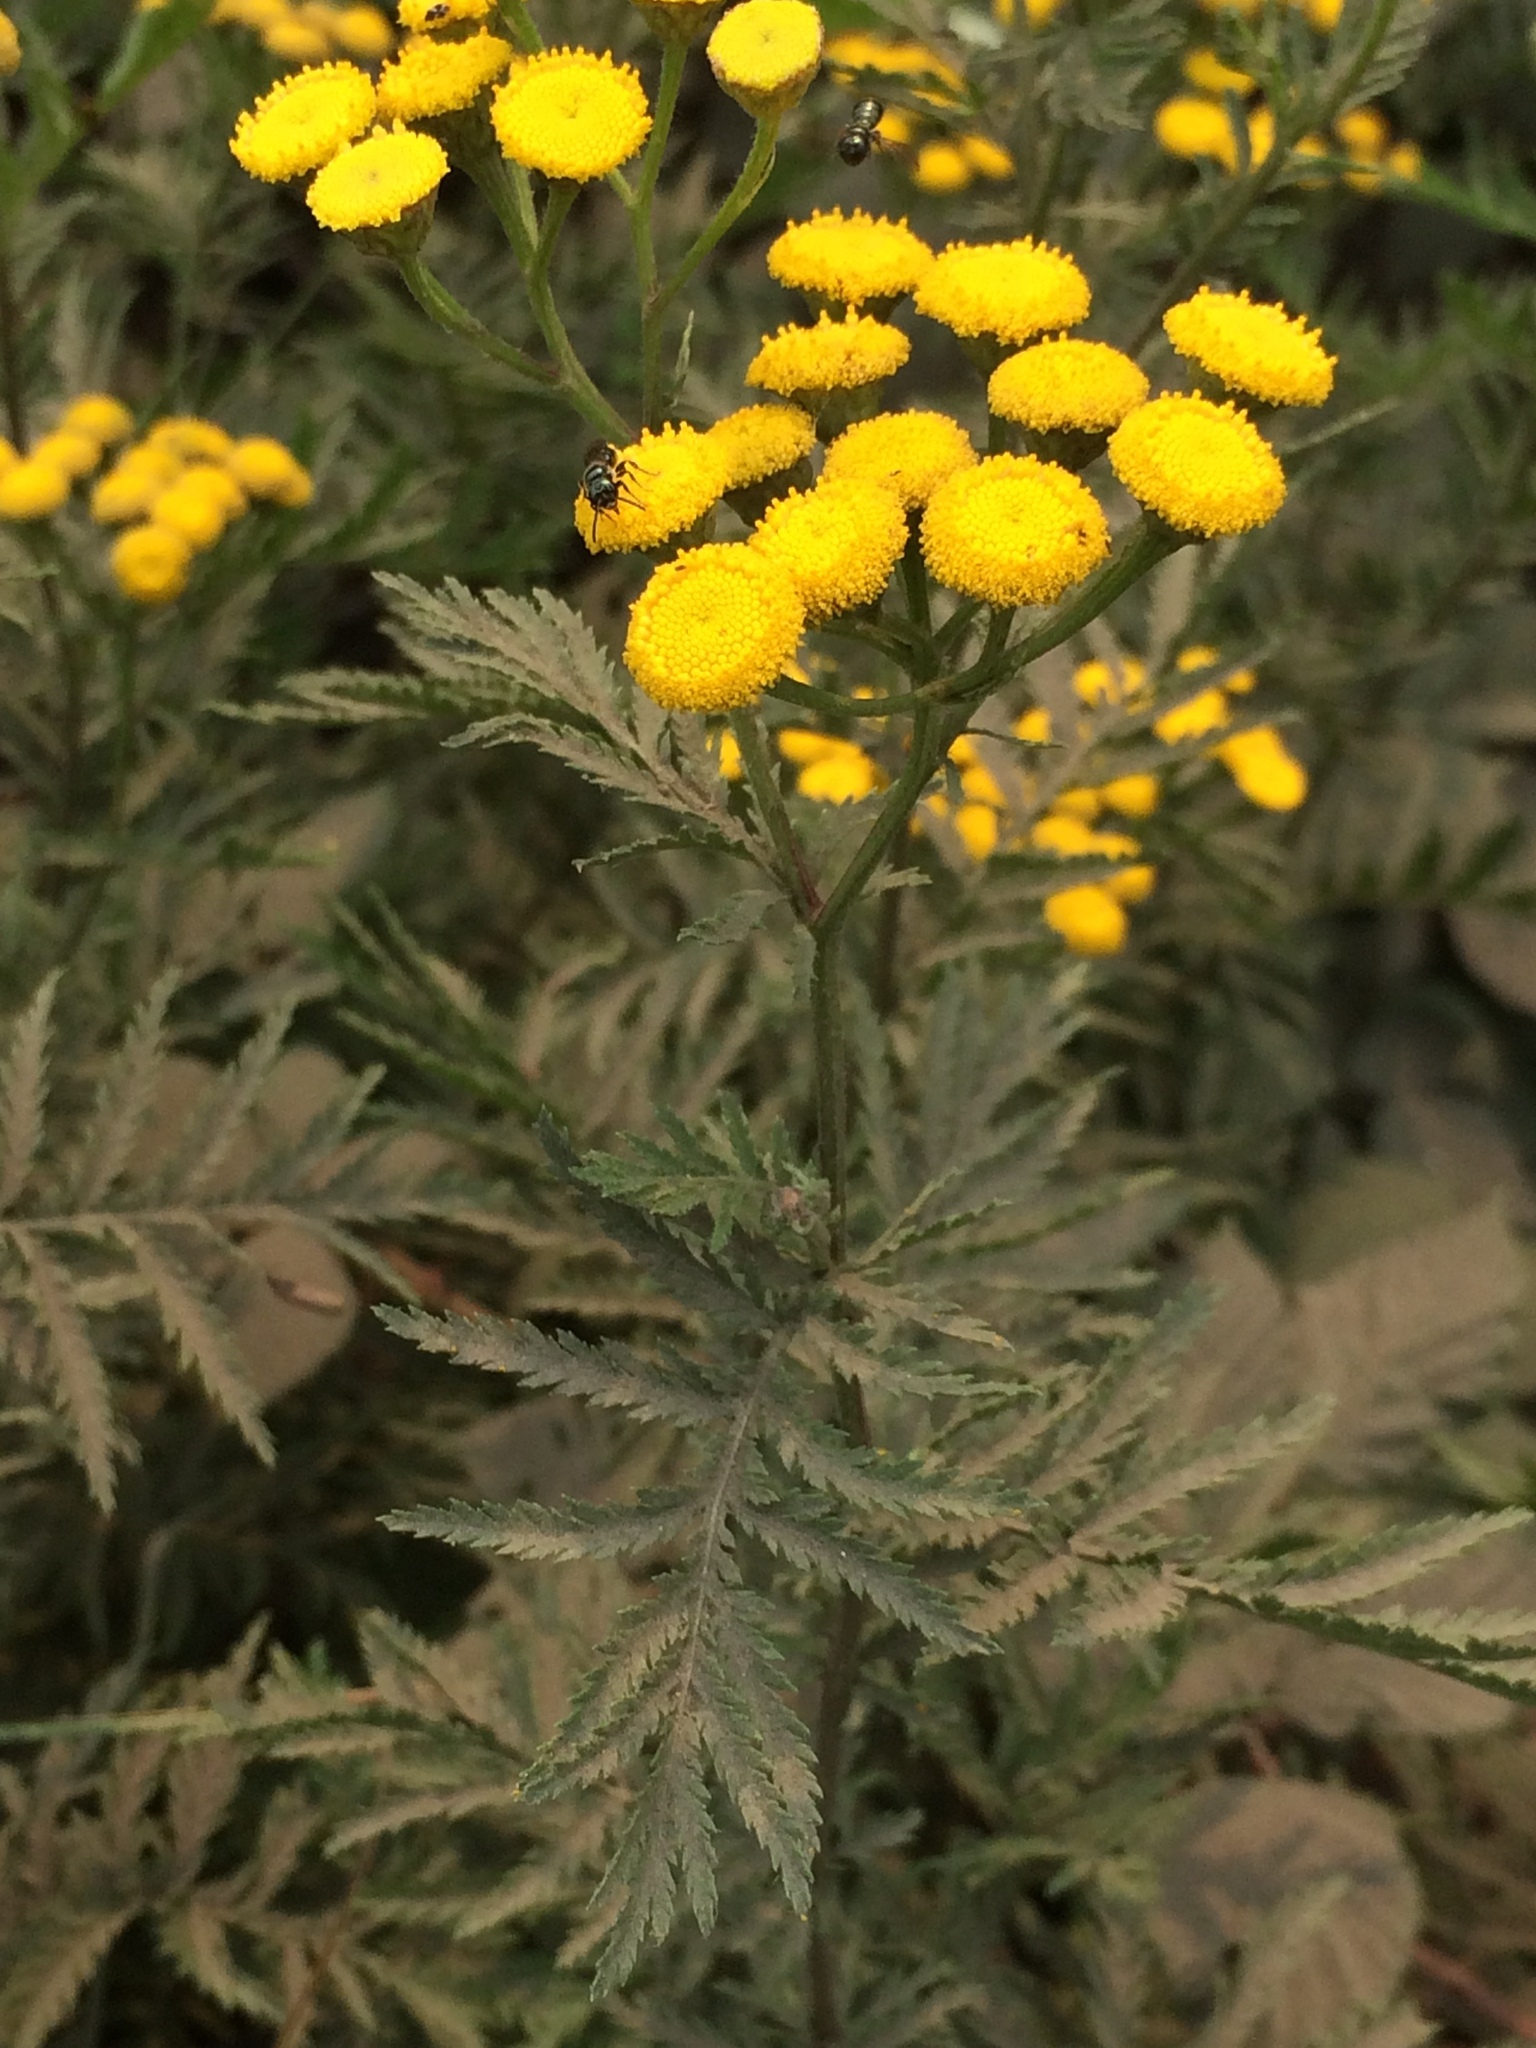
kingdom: Plantae
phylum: Tracheophyta
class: Magnoliopsida
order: Asterales
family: Asteraceae
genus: Tanacetum
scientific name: Tanacetum vulgare
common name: Common tansy
